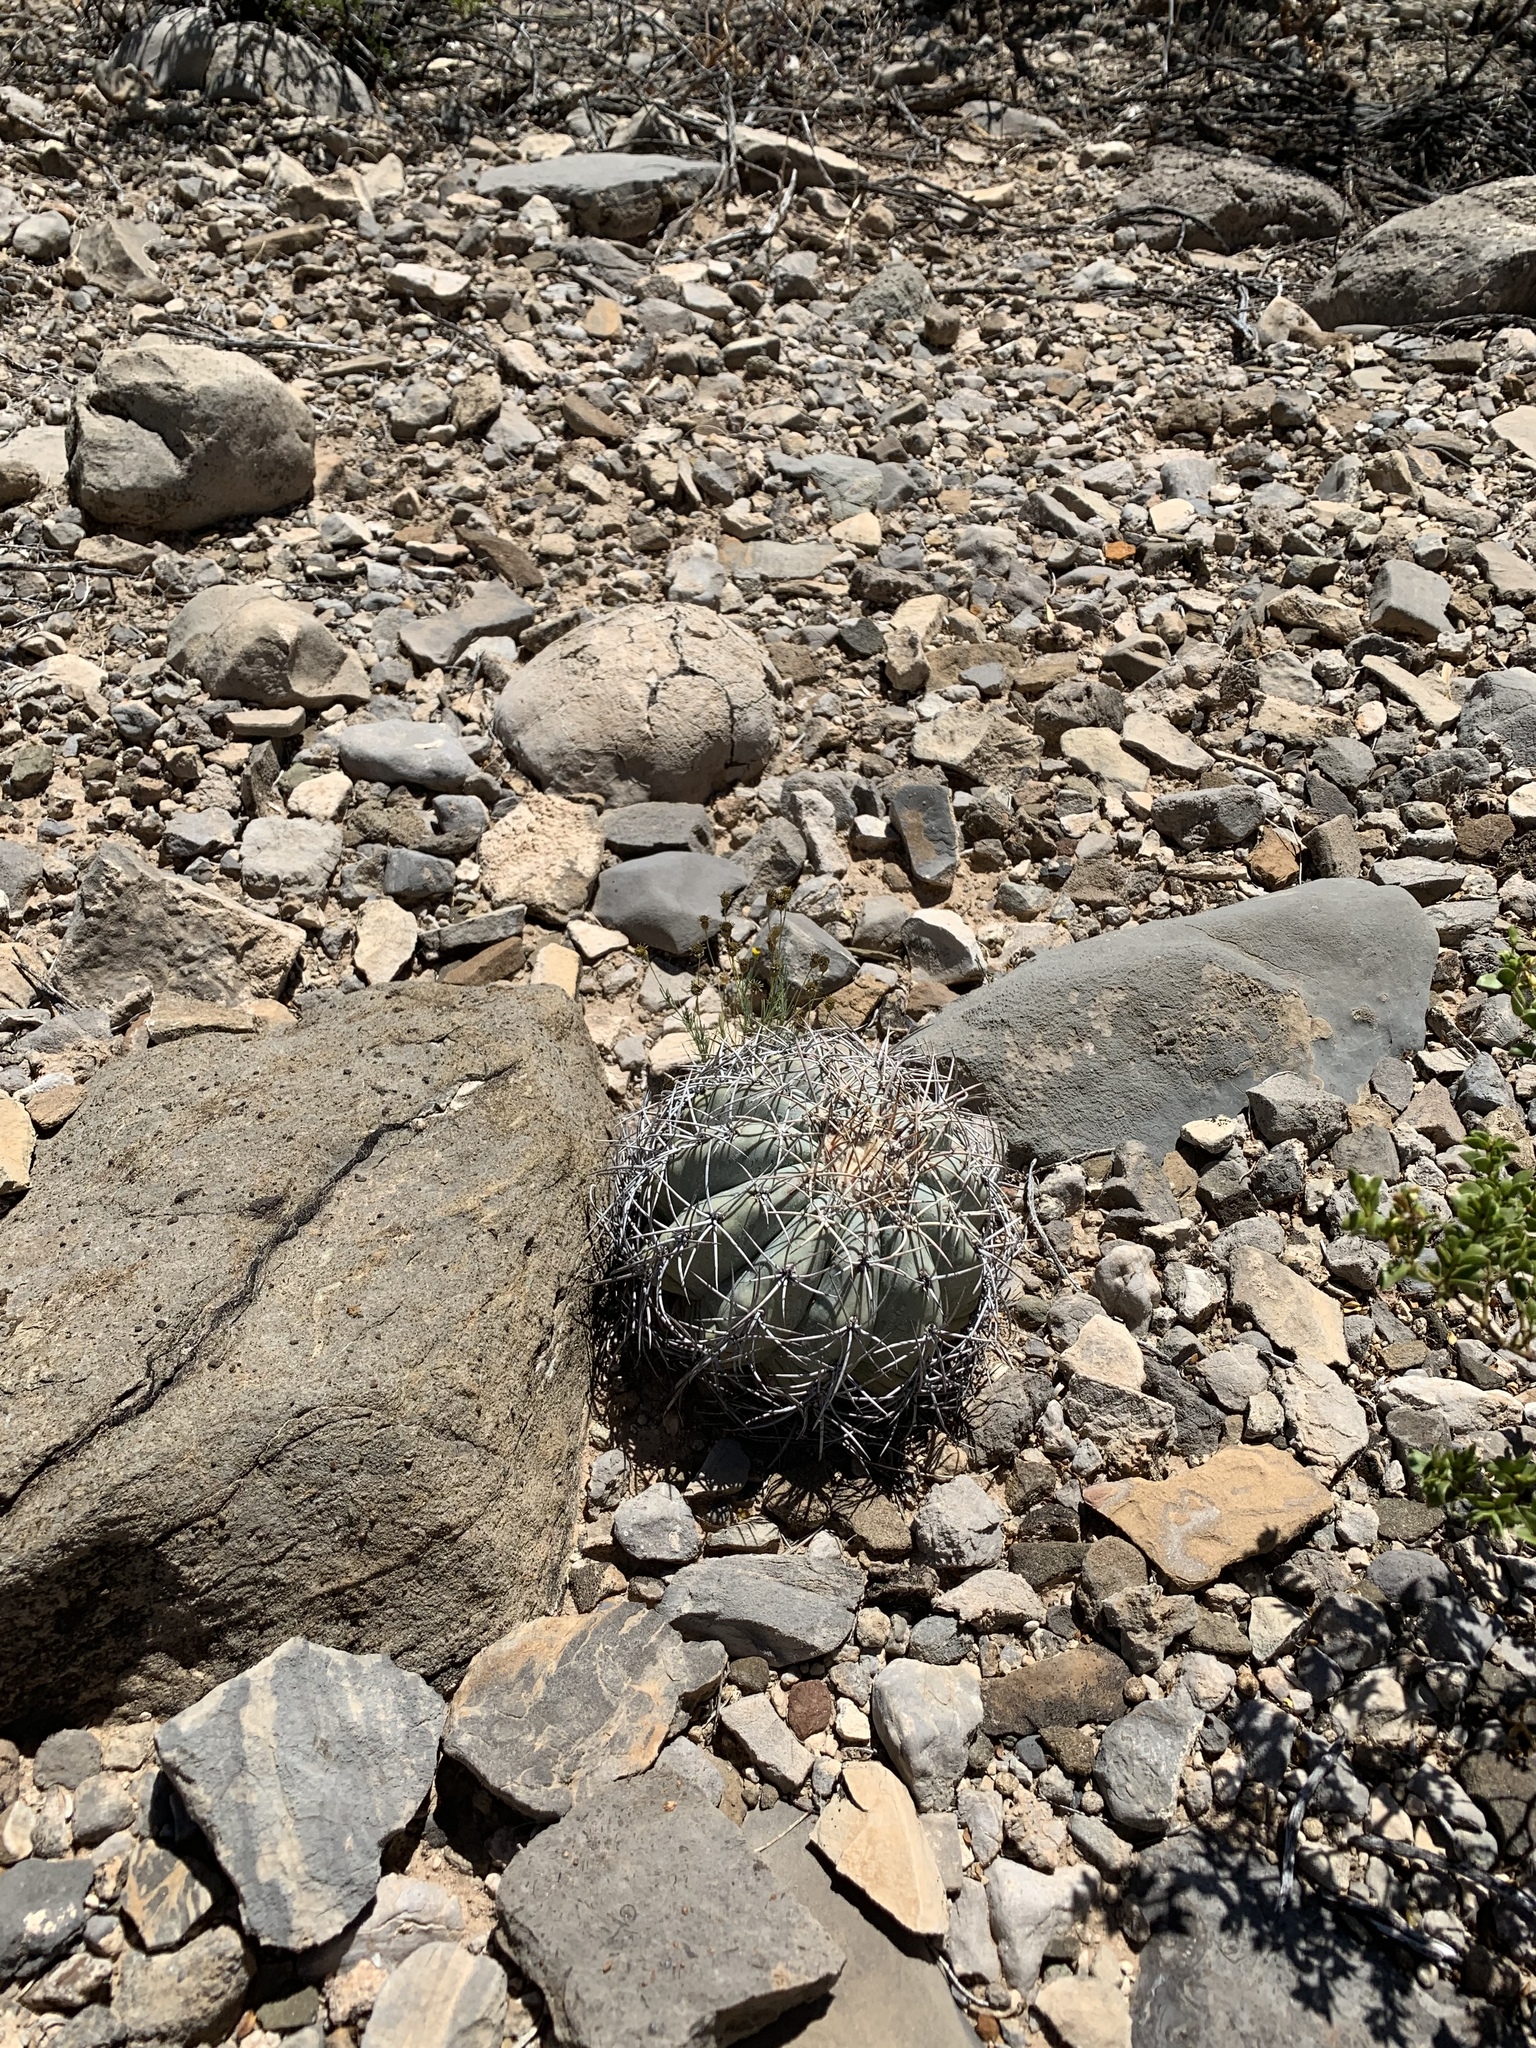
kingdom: Plantae
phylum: Tracheophyta
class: Magnoliopsida
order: Caryophyllales
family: Cactaceae
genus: Echinocactus
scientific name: Echinocactus horizonthalonius
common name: Devilshead
